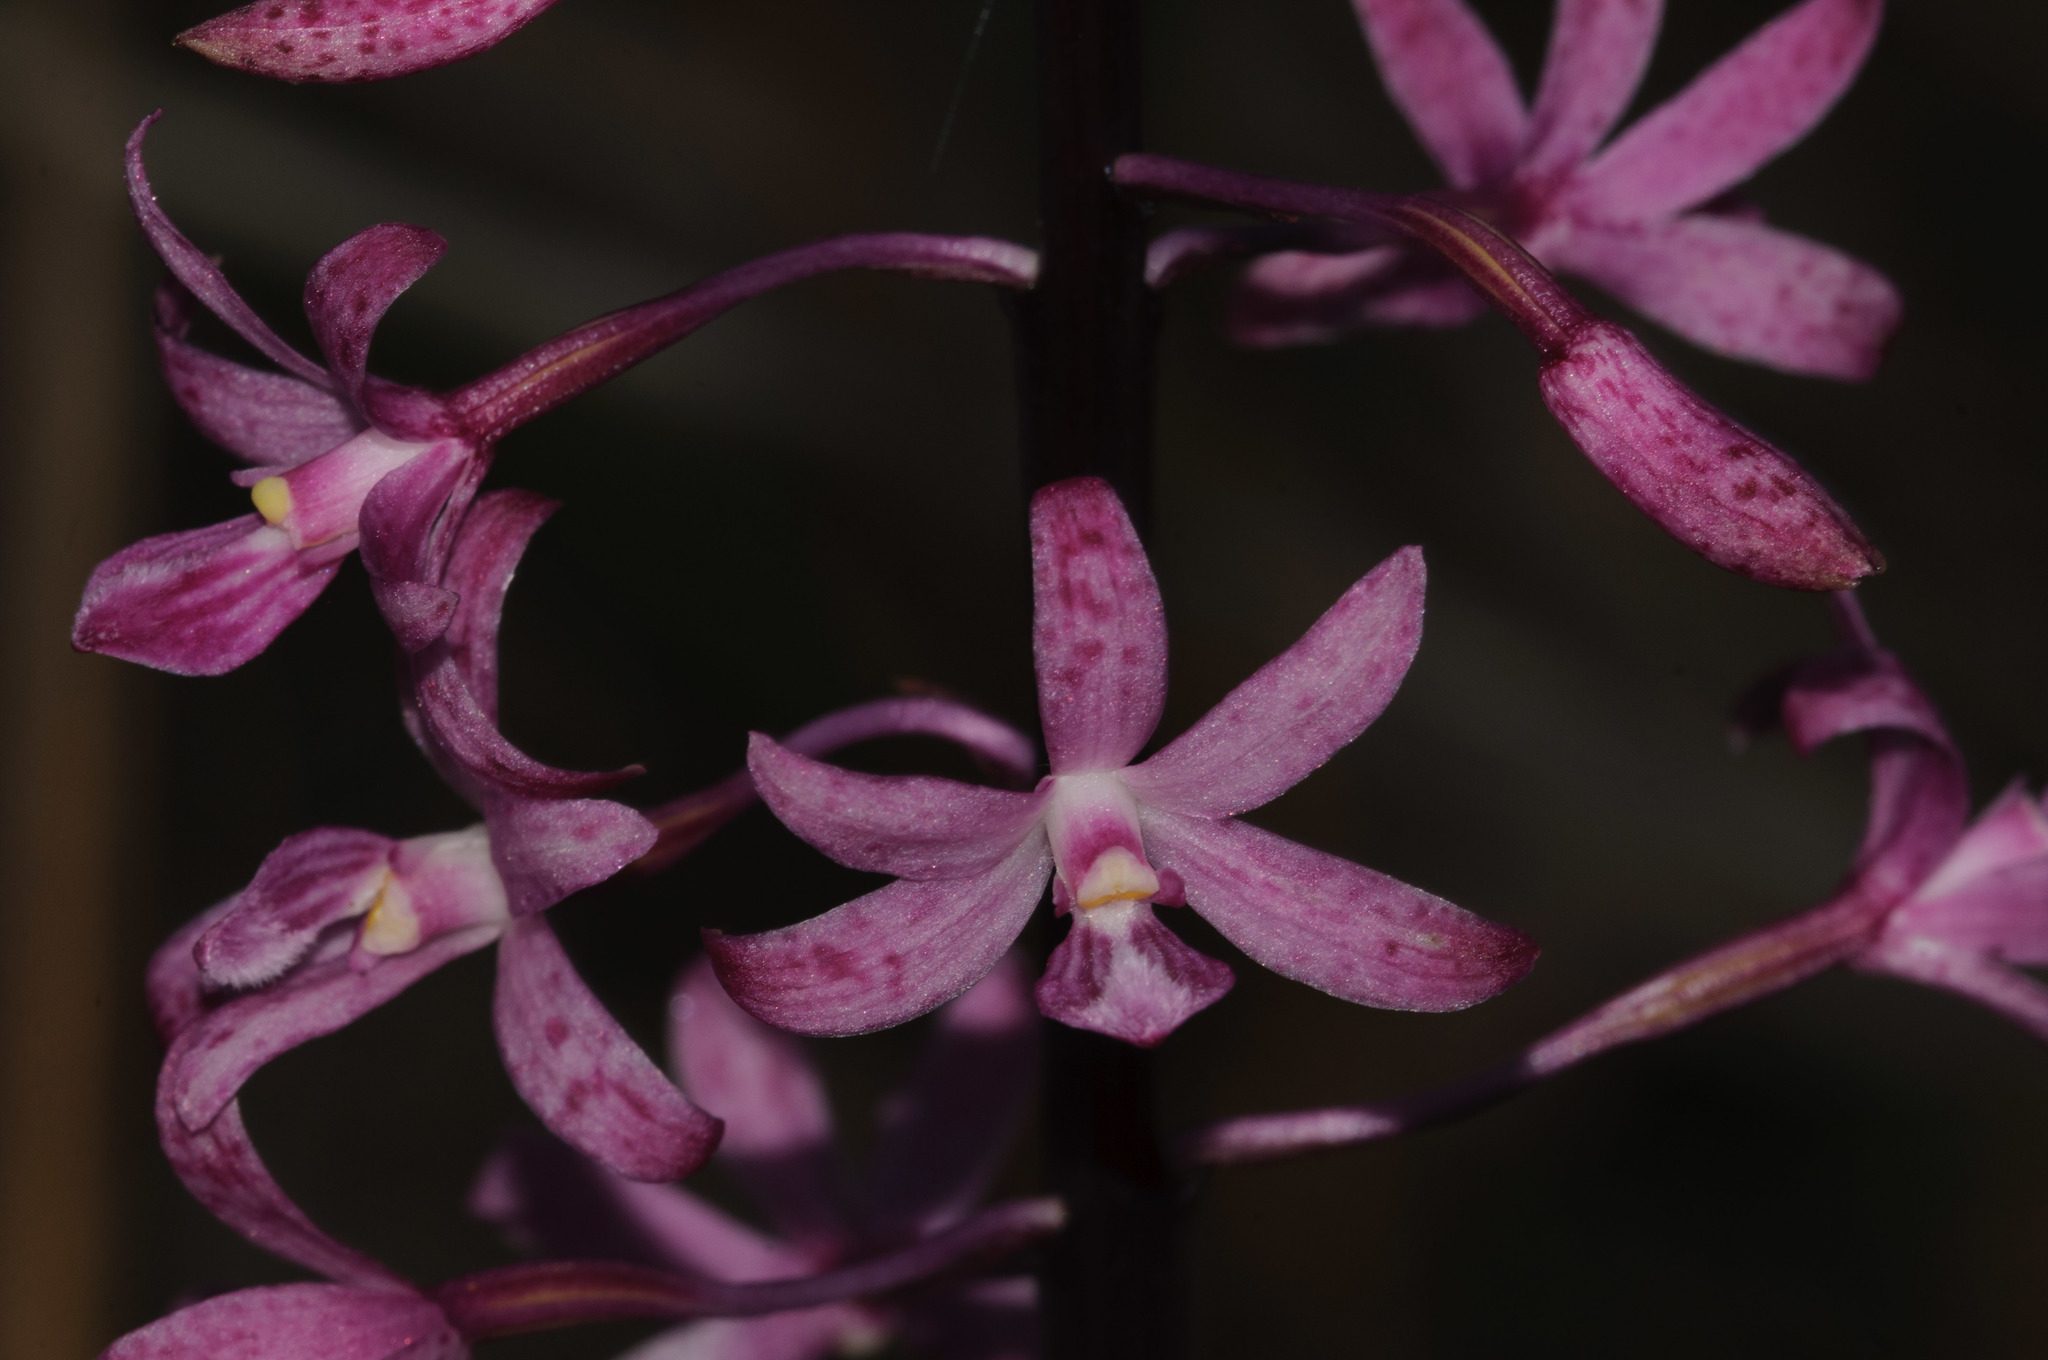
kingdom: Plantae
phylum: Tracheophyta
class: Liliopsida
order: Asparagales
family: Orchidaceae
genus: Dipodium
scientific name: Dipodium roseum
